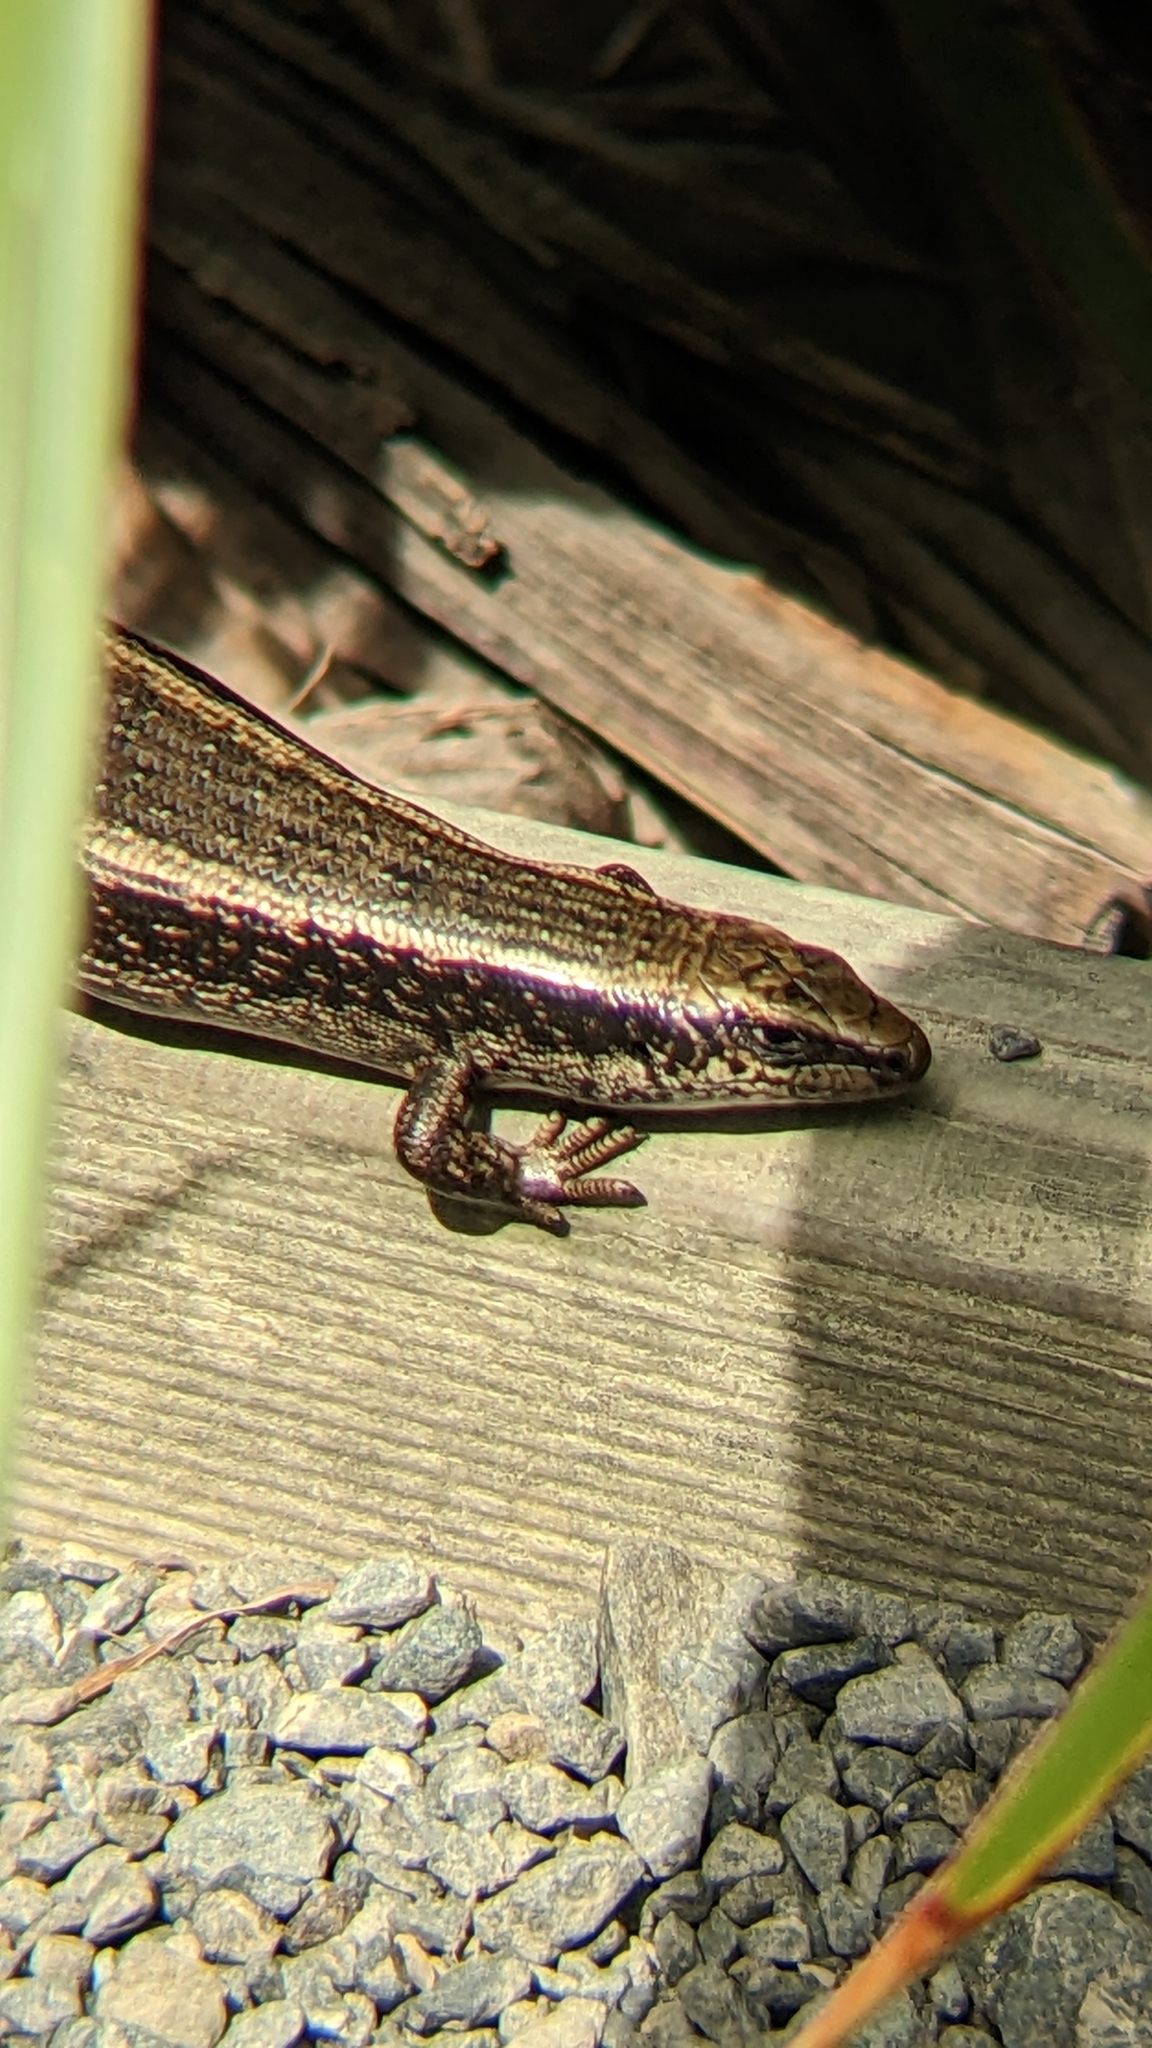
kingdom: Animalia
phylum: Chordata
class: Squamata
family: Scincidae
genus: Oligosoma
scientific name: Oligosoma kokowai
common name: Northern spotted skink
